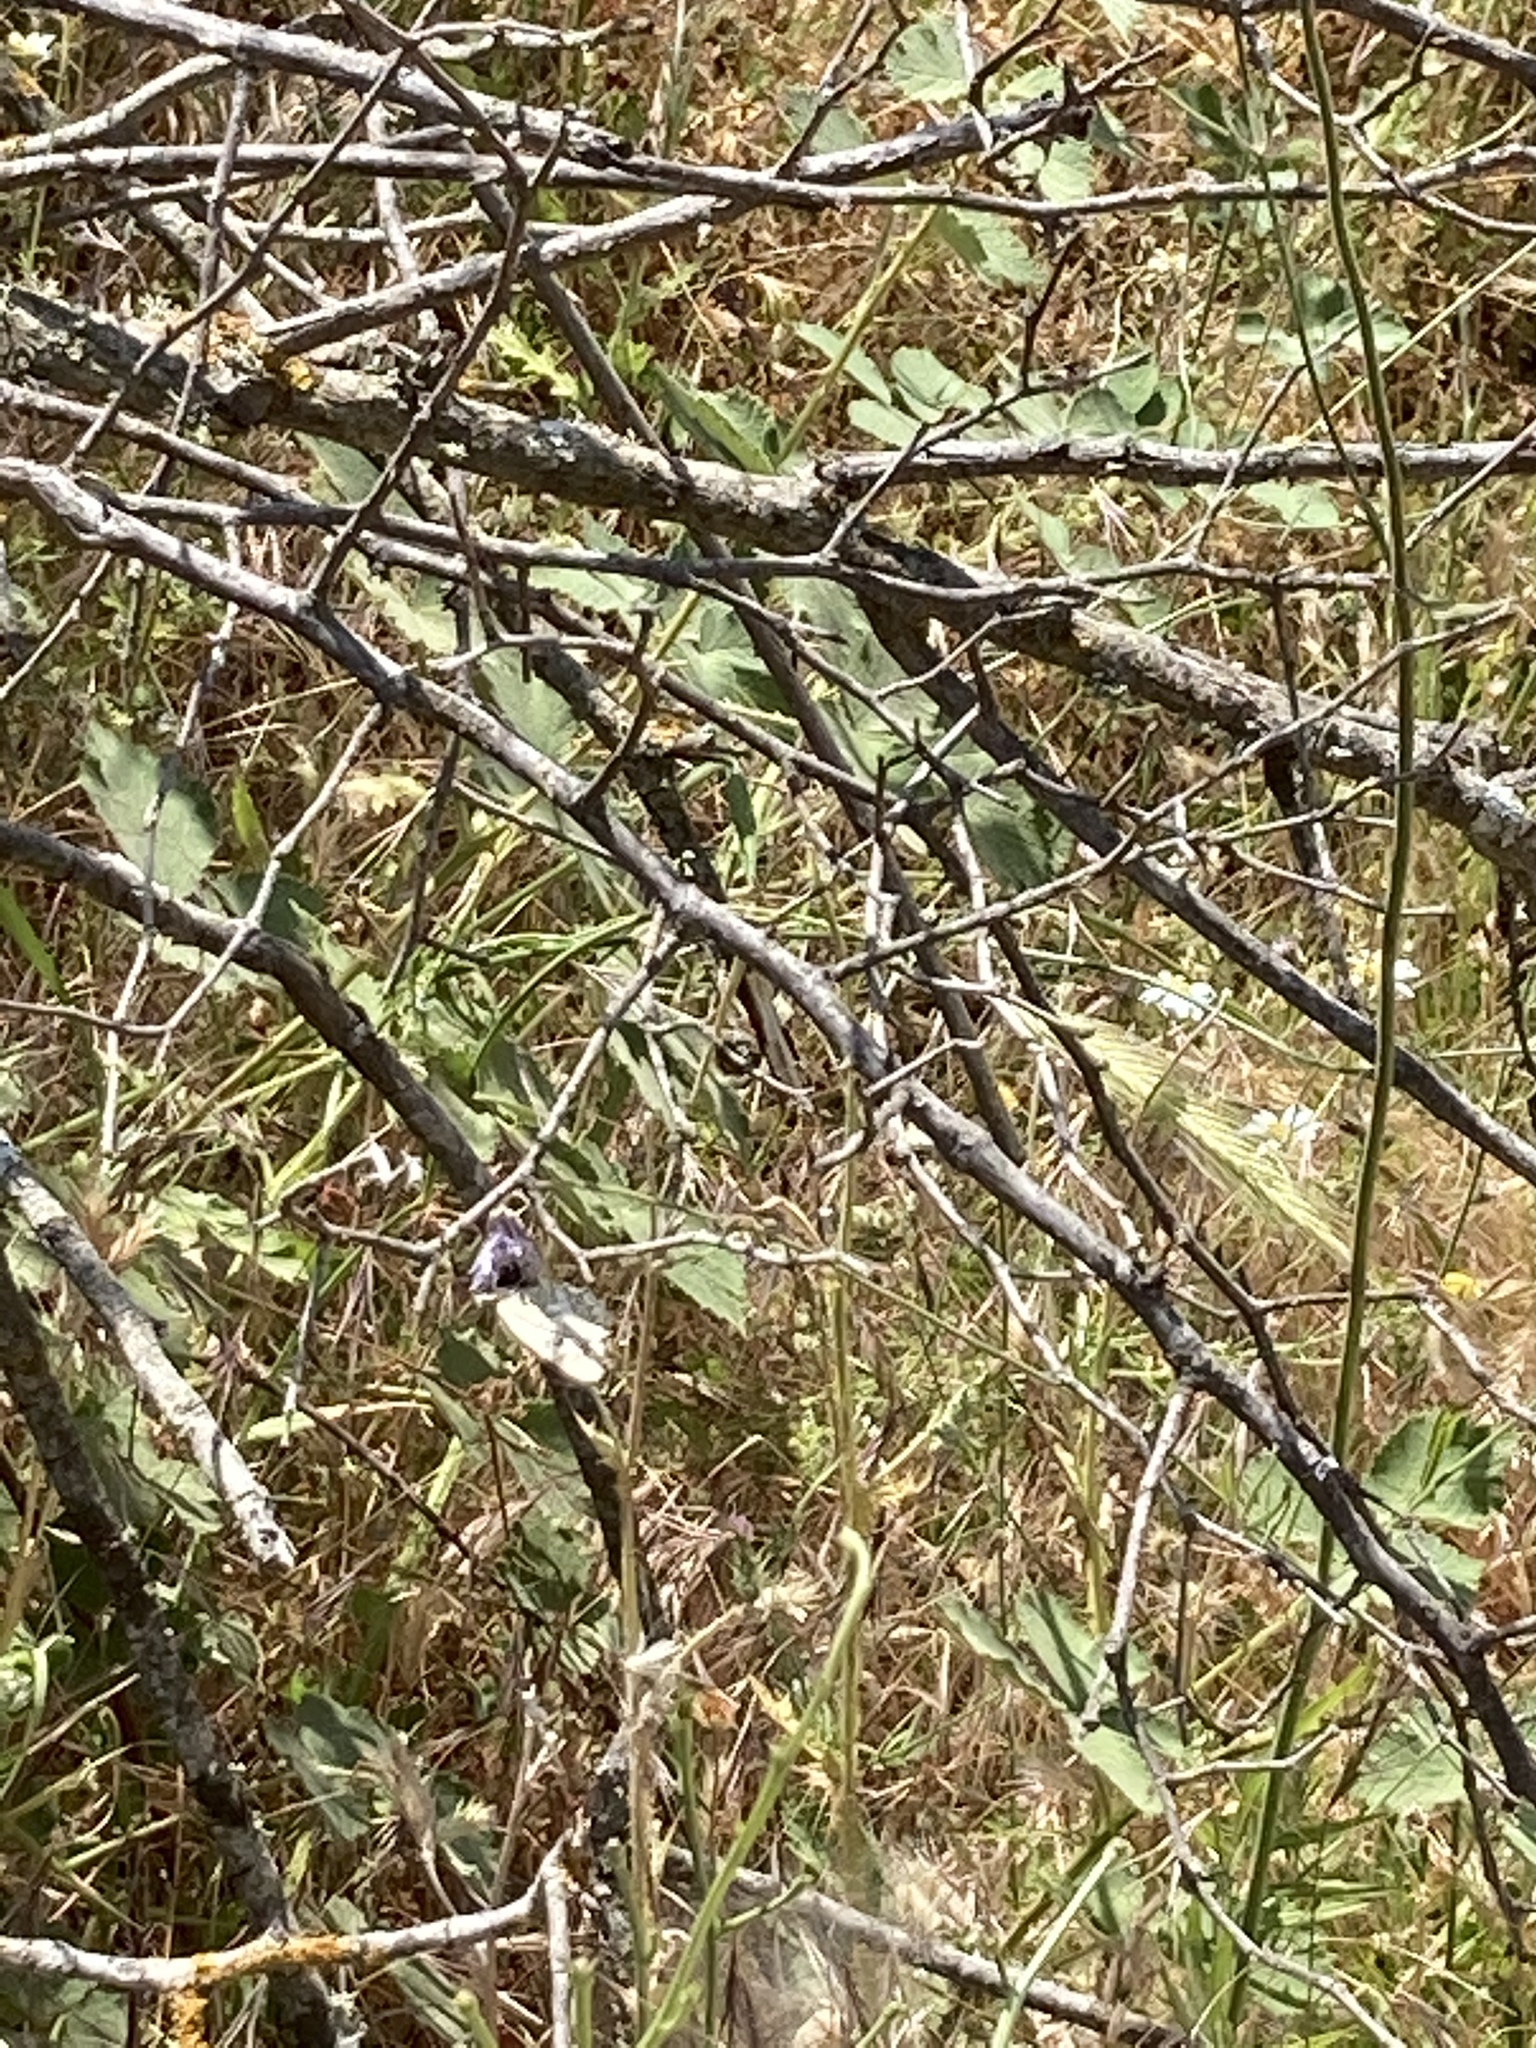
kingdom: Animalia
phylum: Arthropoda
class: Insecta
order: Lepidoptera
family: Nymphalidae
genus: Melanargia
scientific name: Melanargia larissa
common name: Balkan marbled white
